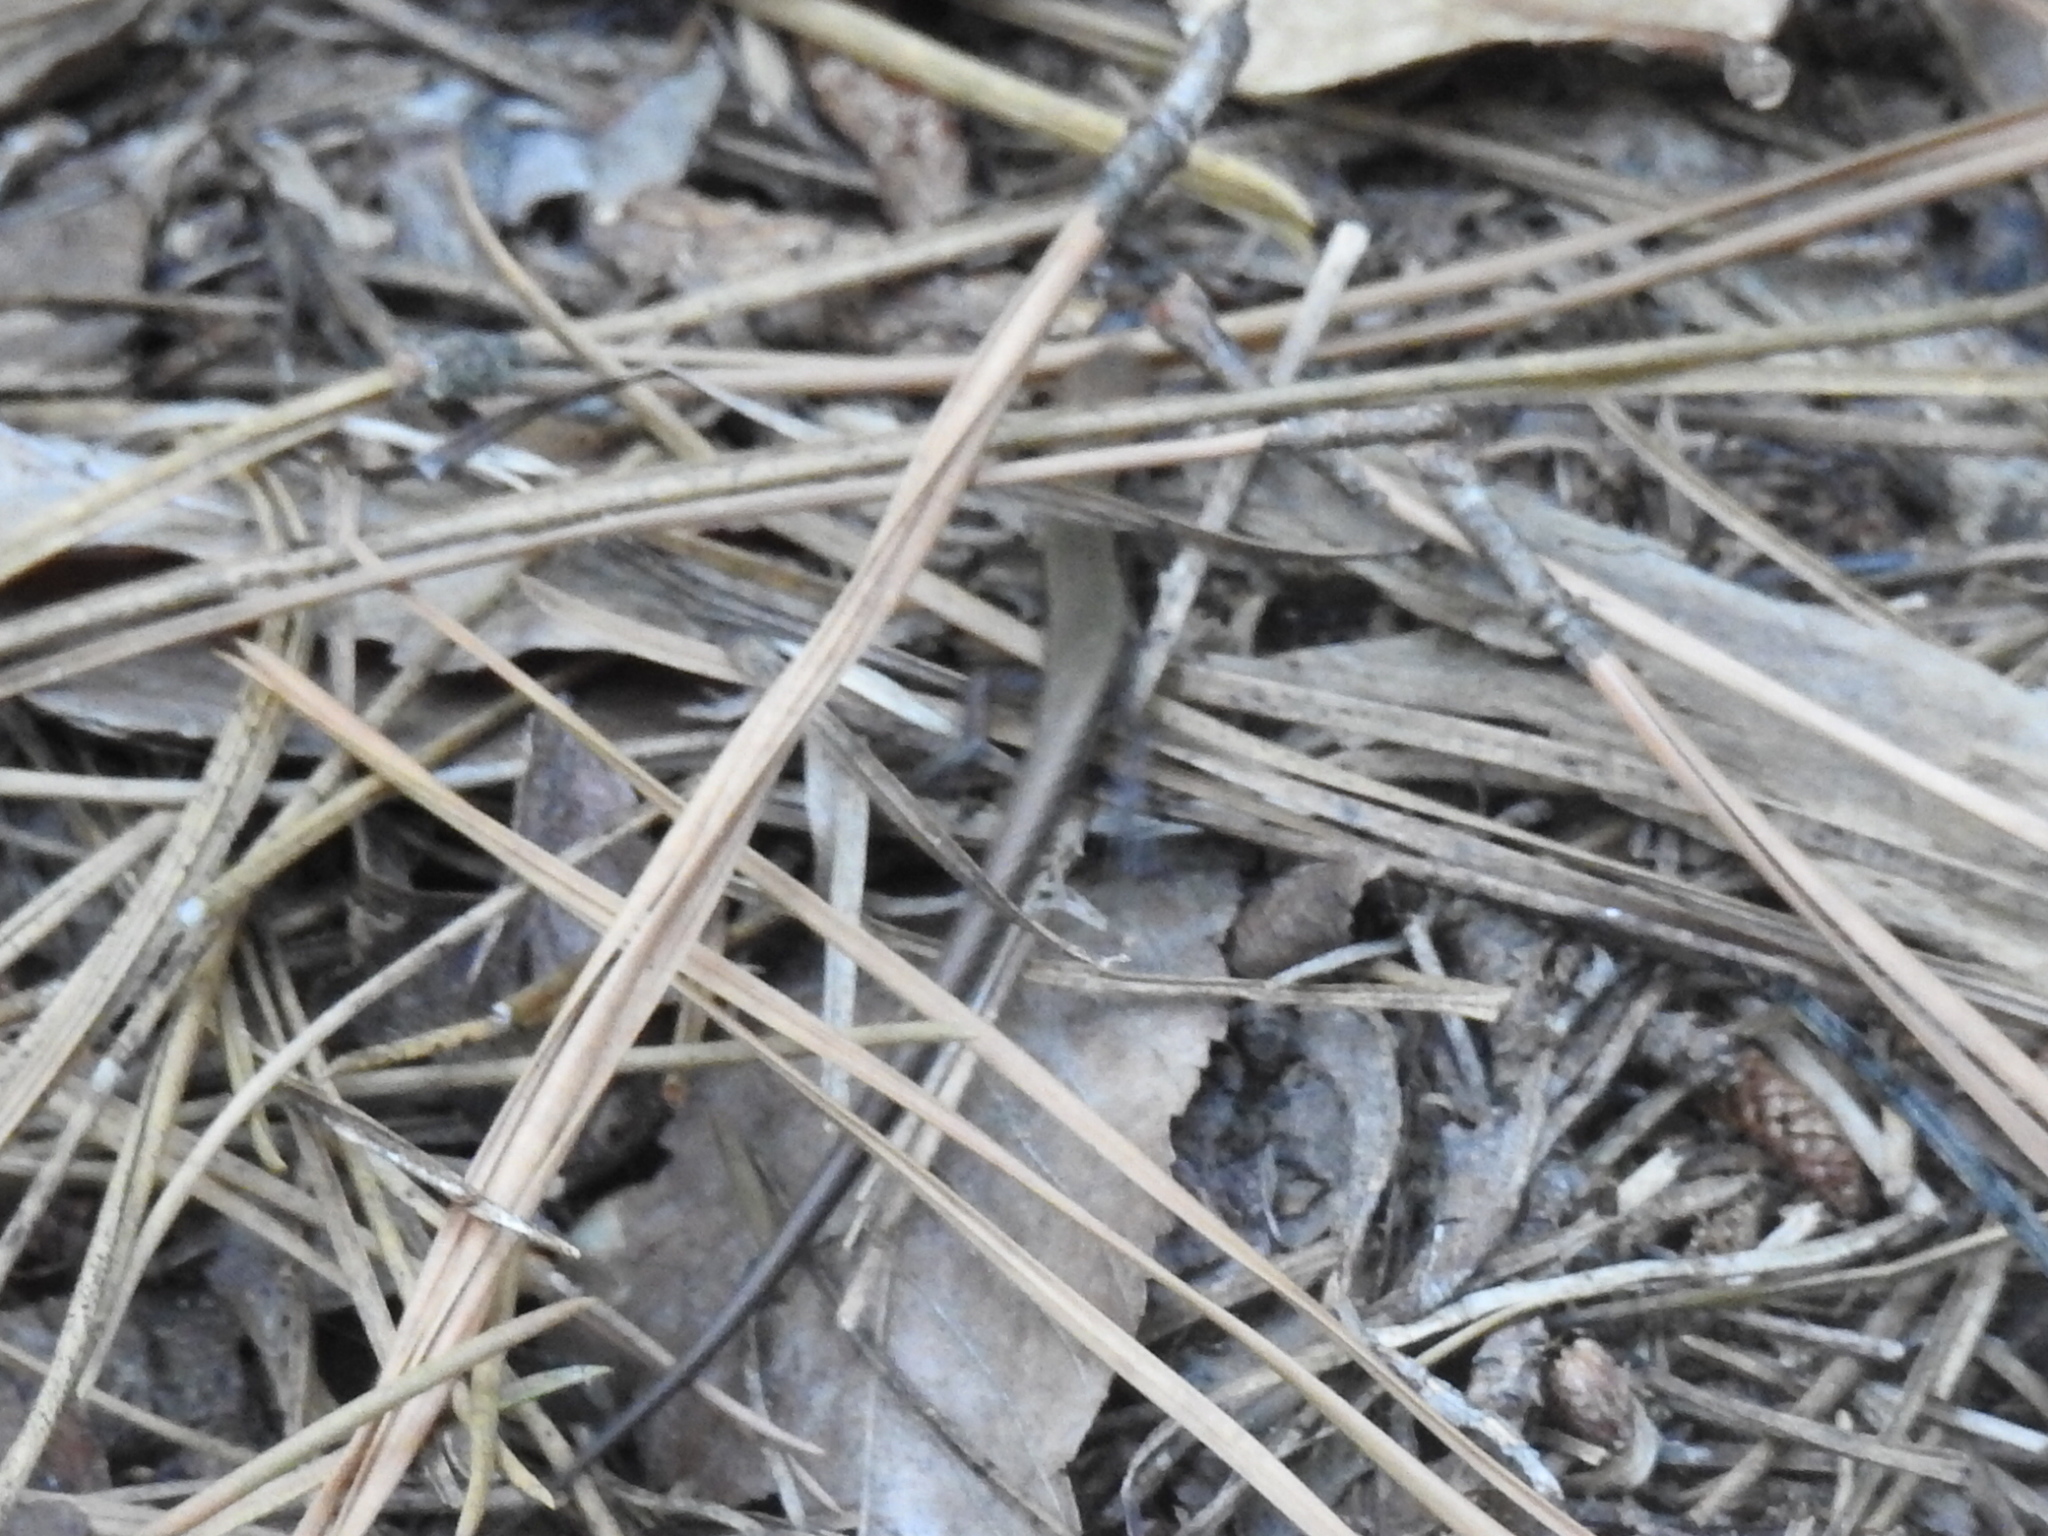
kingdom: Animalia
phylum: Chordata
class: Squamata
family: Scincidae
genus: Scincella
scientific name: Scincella lateralis
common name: Ground skink
